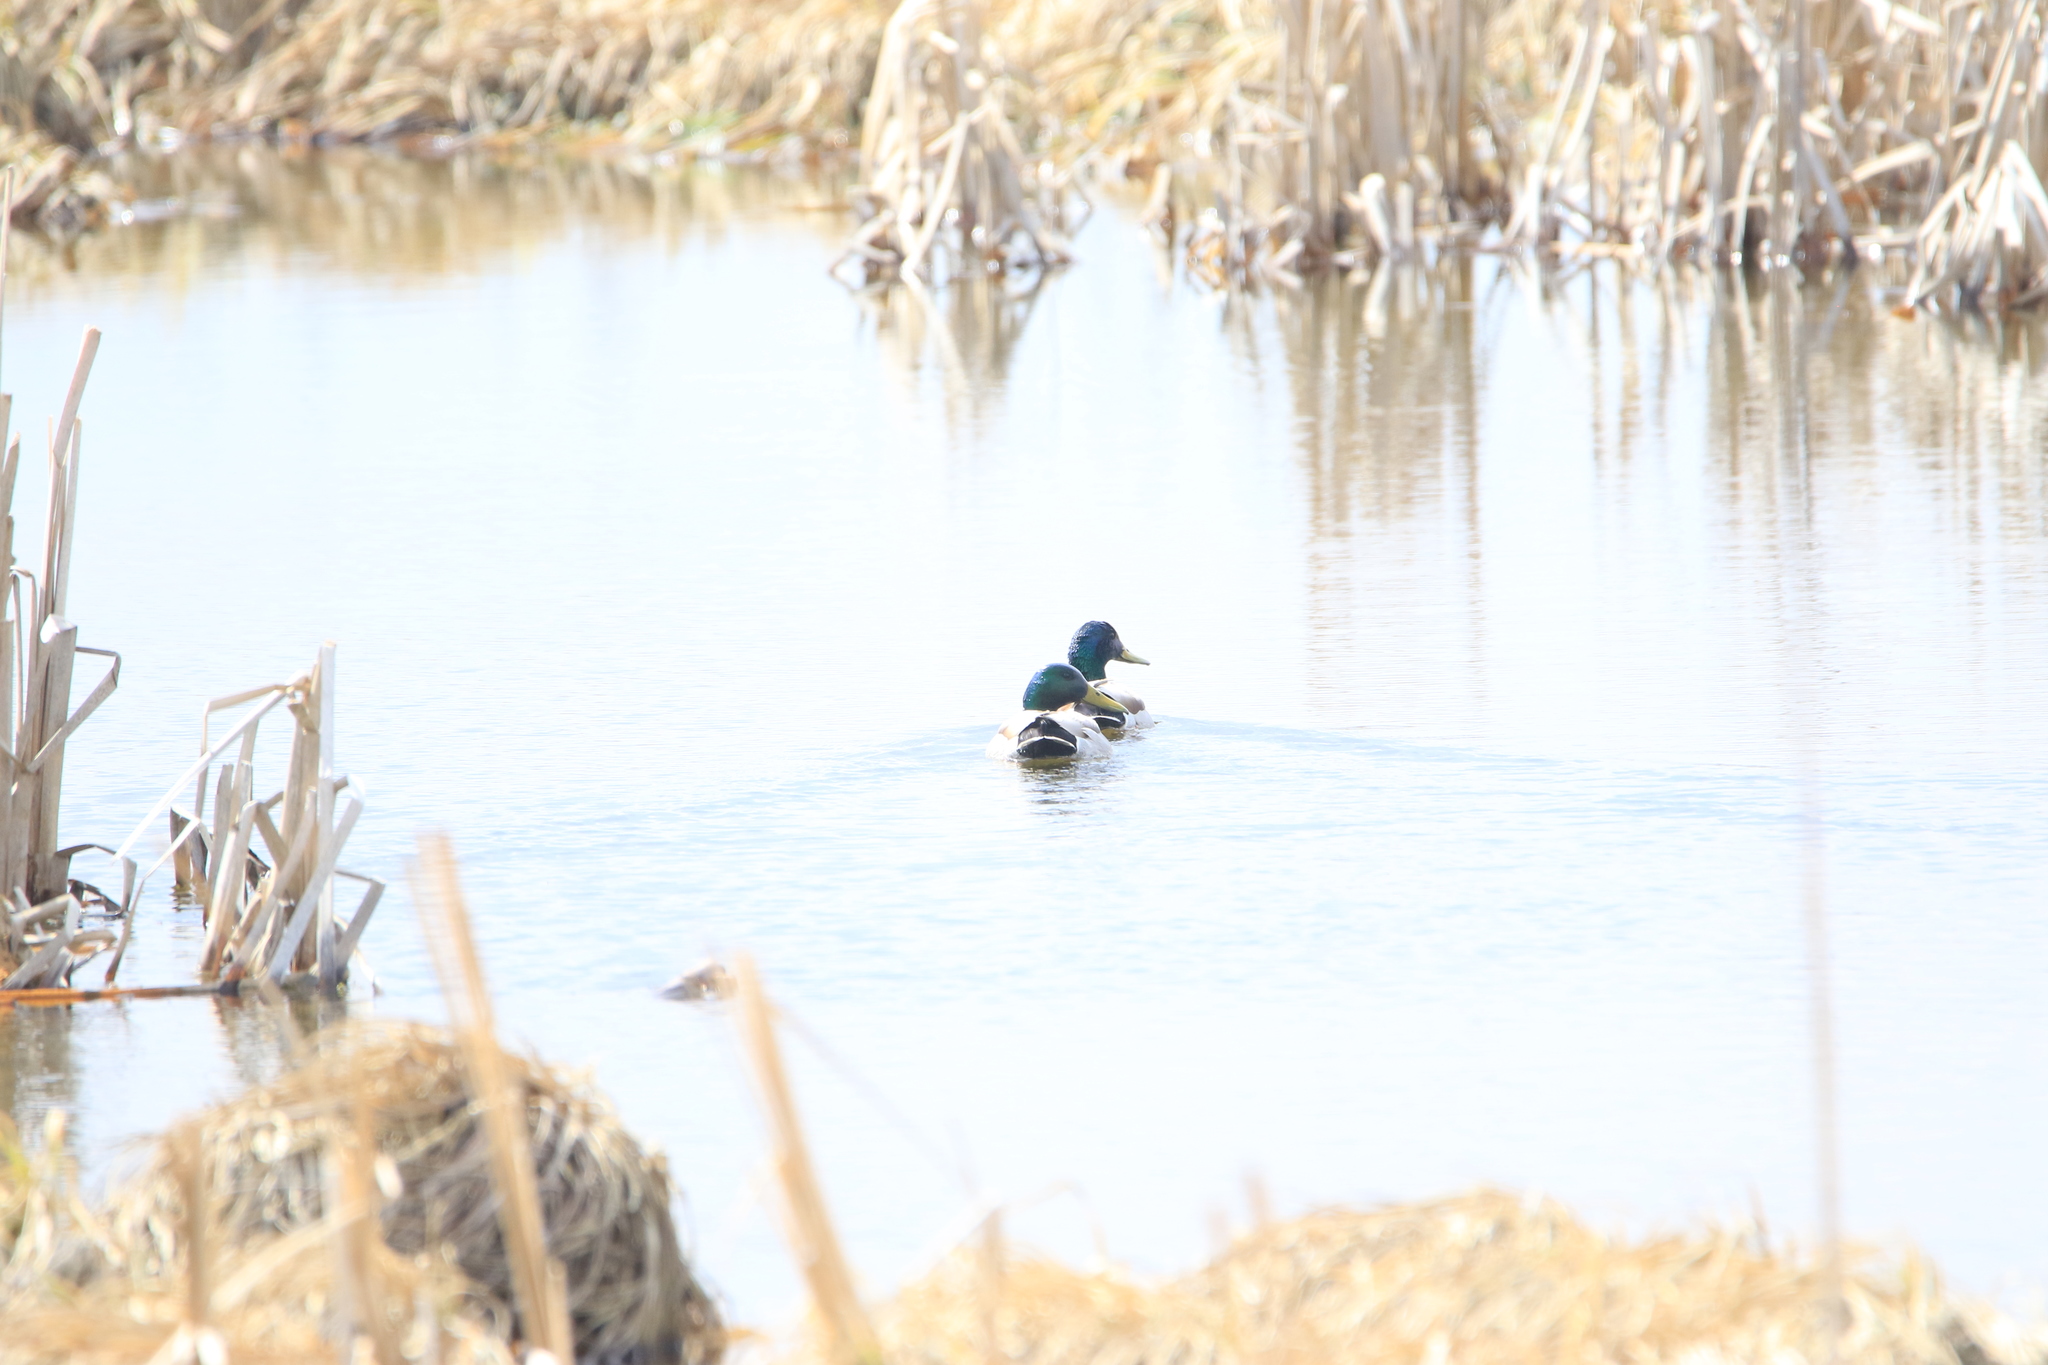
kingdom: Animalia
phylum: Chordata
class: Aves
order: Anseriformes
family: Anatidae
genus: Anas
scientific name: Anas platyrhynchos
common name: Mallard
